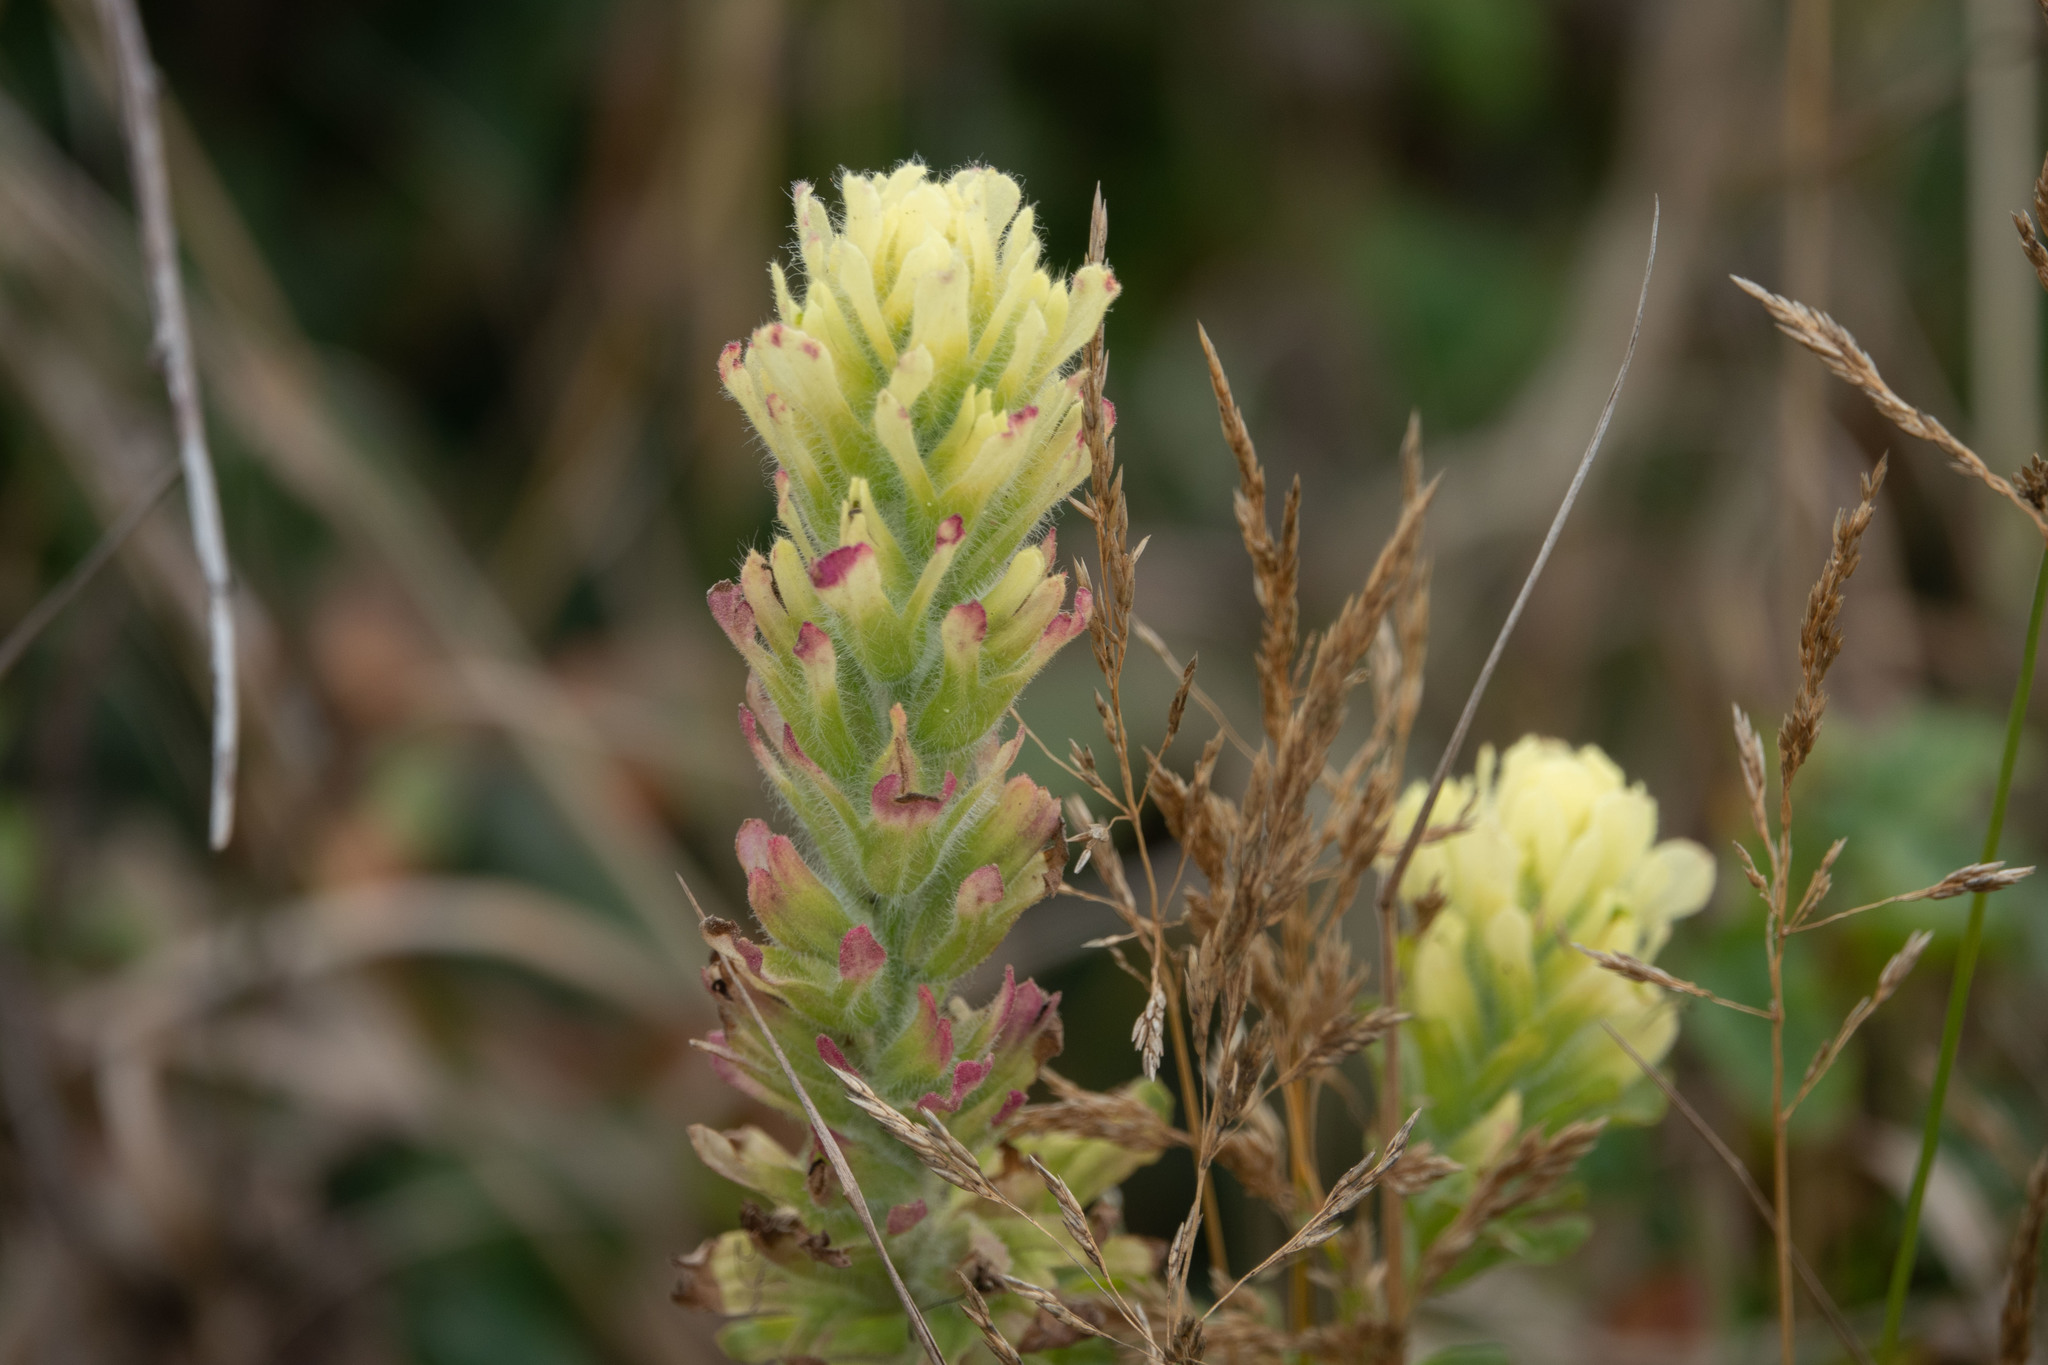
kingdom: Plantae
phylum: Tracheophyta
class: Magnoliopsida
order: Lamiales
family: Orobanchaceae
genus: Castilleja
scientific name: Castilleja wightii
